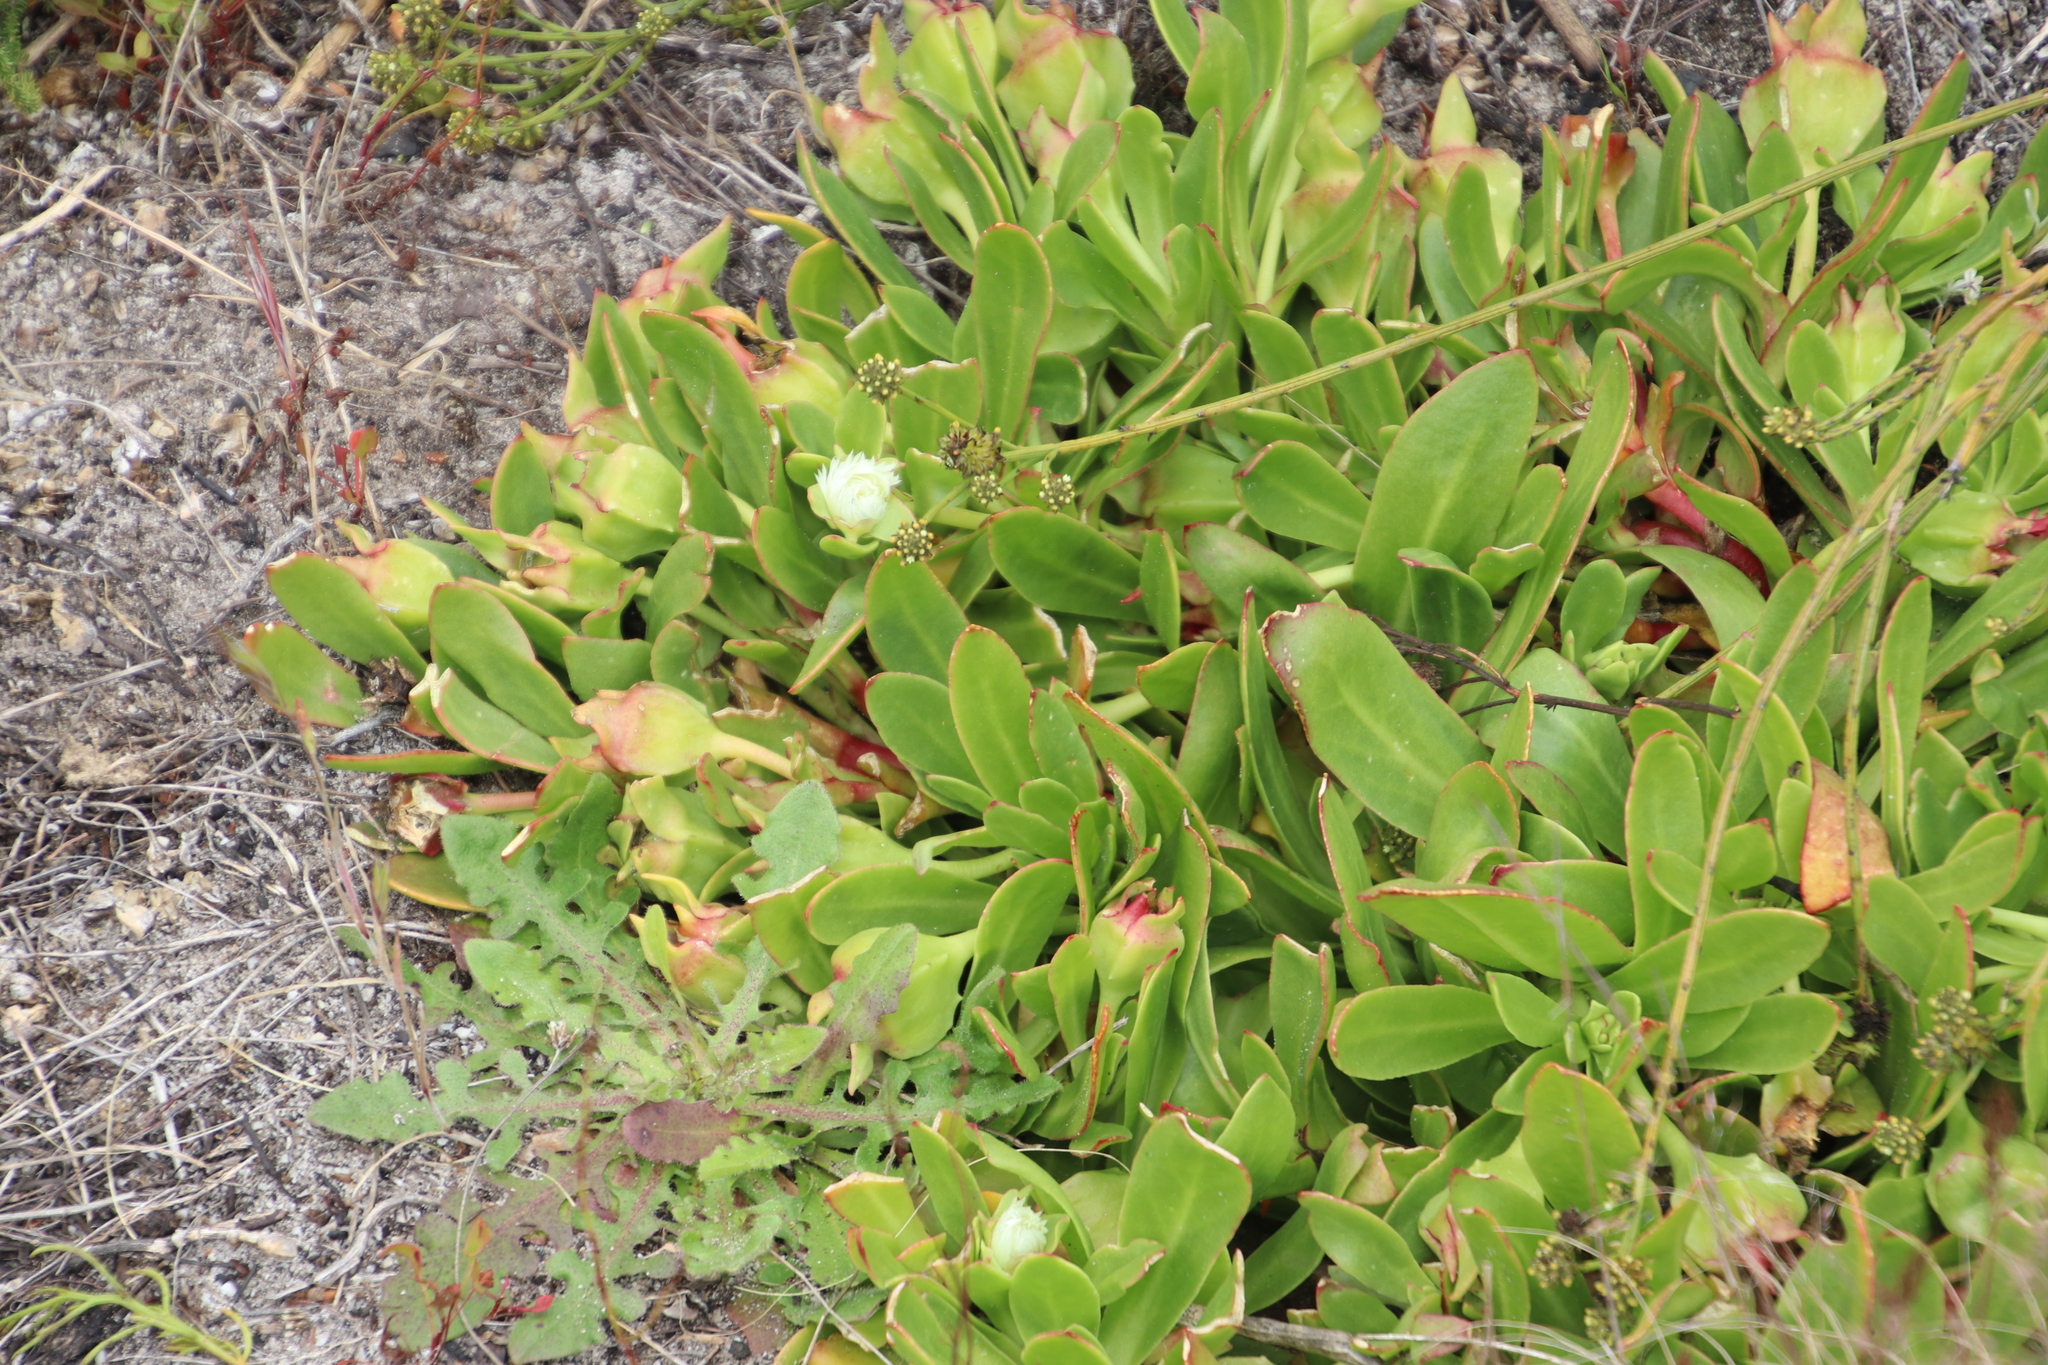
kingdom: Plantae
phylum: Tracheophyta
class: Magnoliopsida
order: Caryophyllales
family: Aizoaceae
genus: Skiatophytum
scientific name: Skiatophytum tripolium
